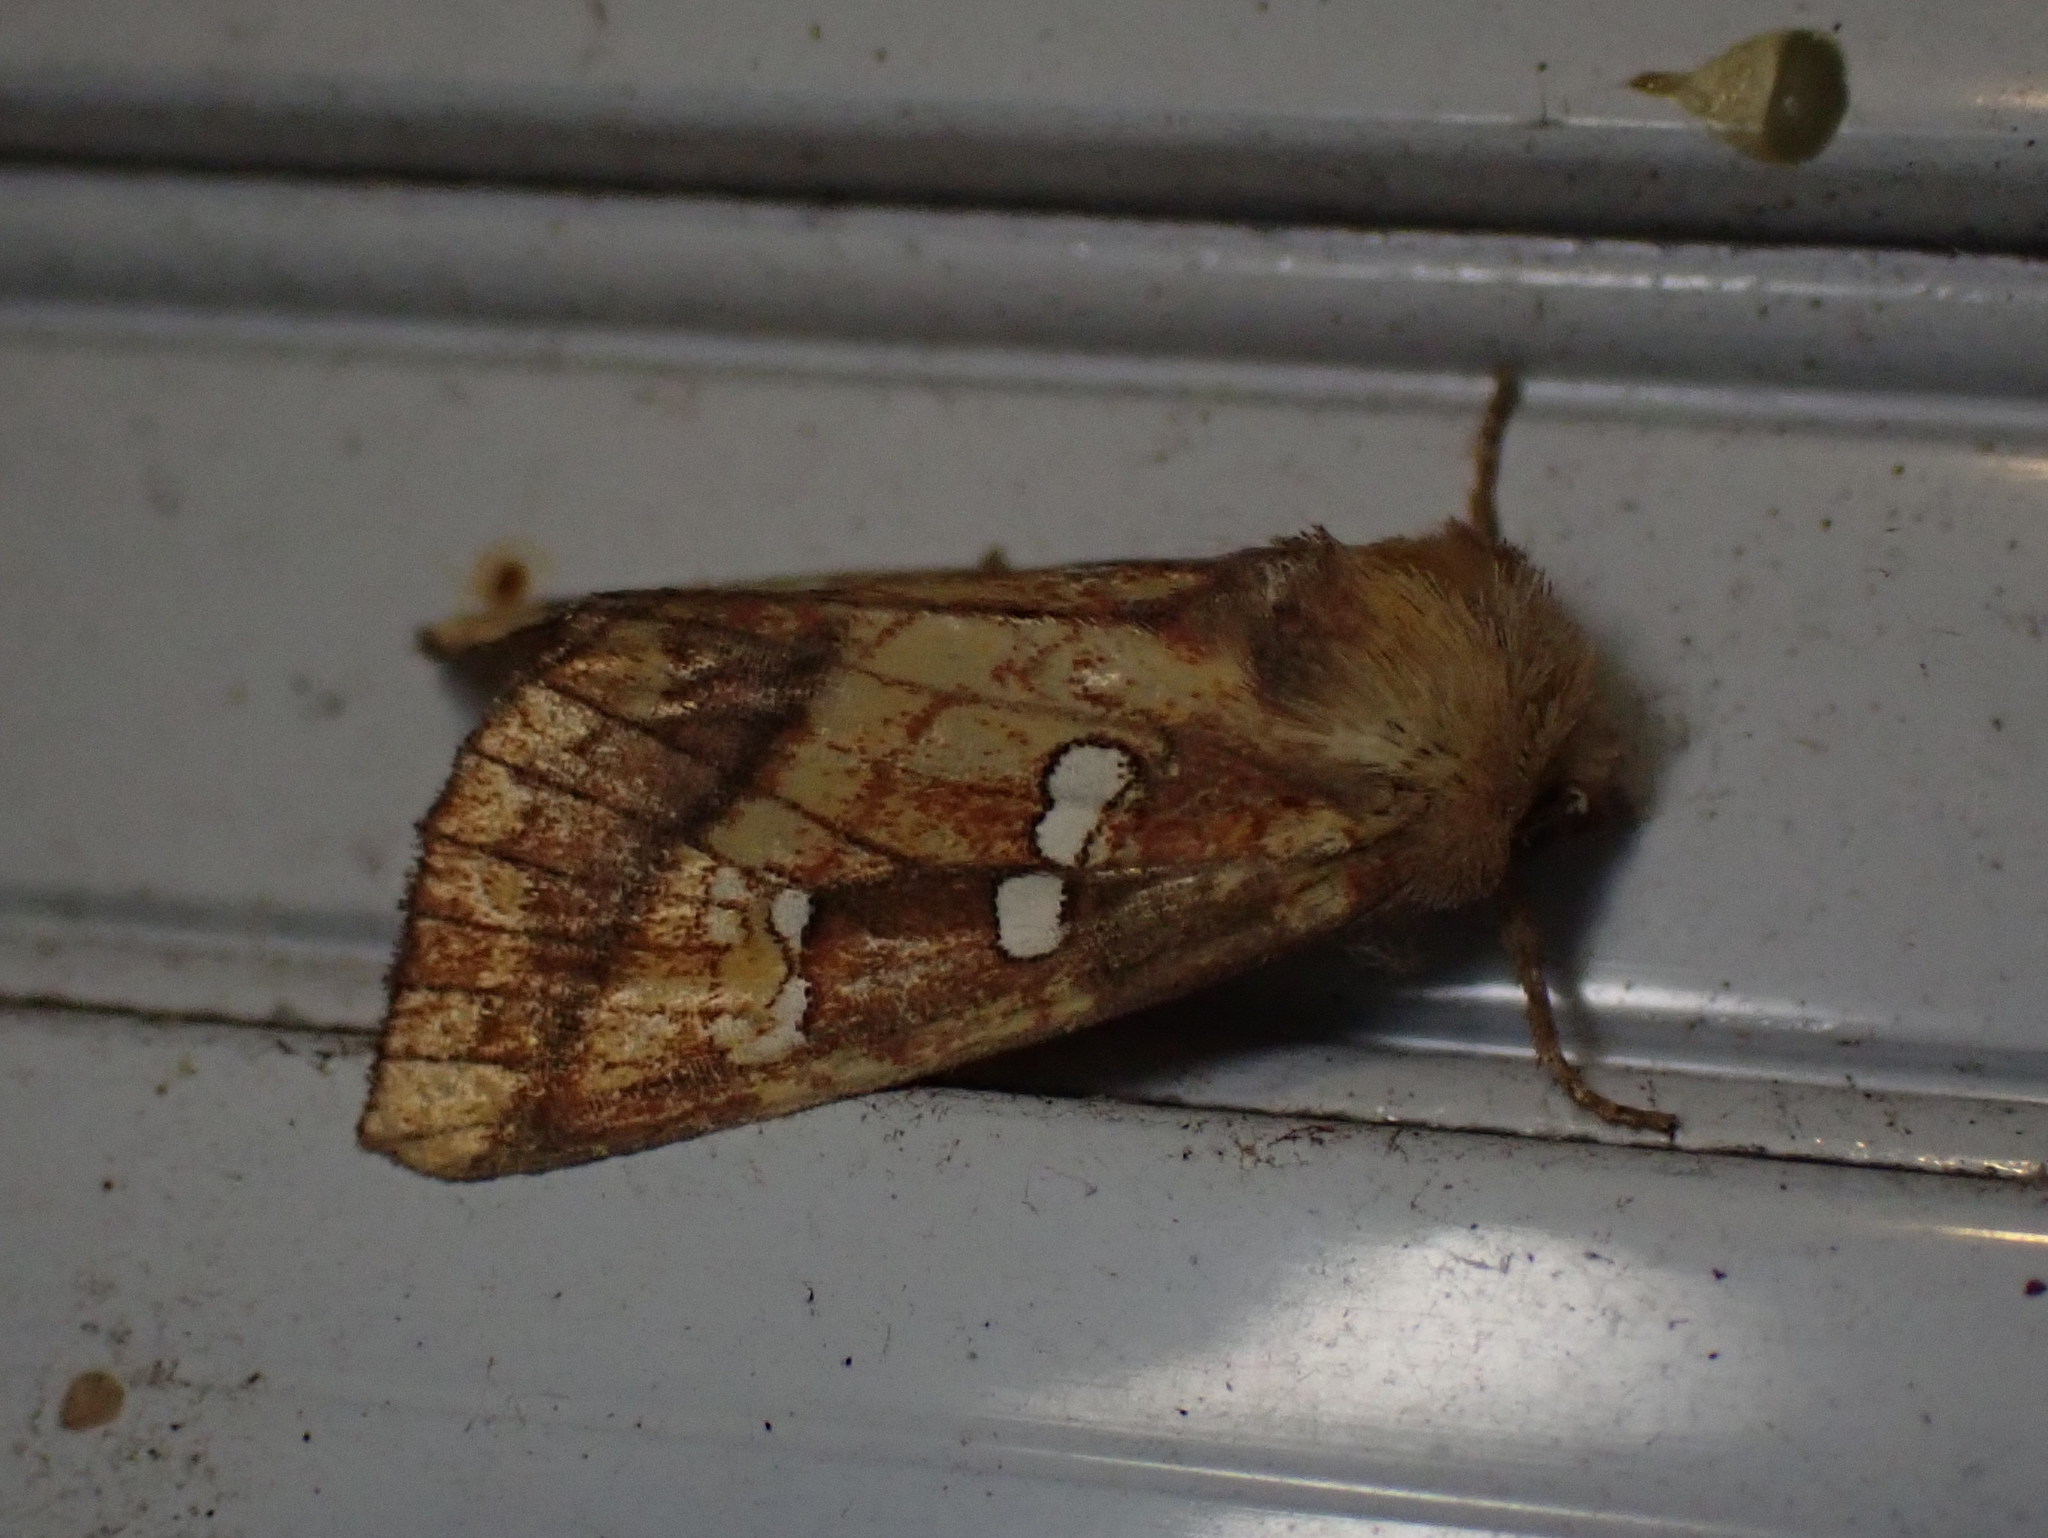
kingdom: Animalia
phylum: Arthropoda
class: Insecta
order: Lepidoptera
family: Noctuidae
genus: Papaipema
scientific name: Papaipema pterisii
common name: Bracken borer moth
